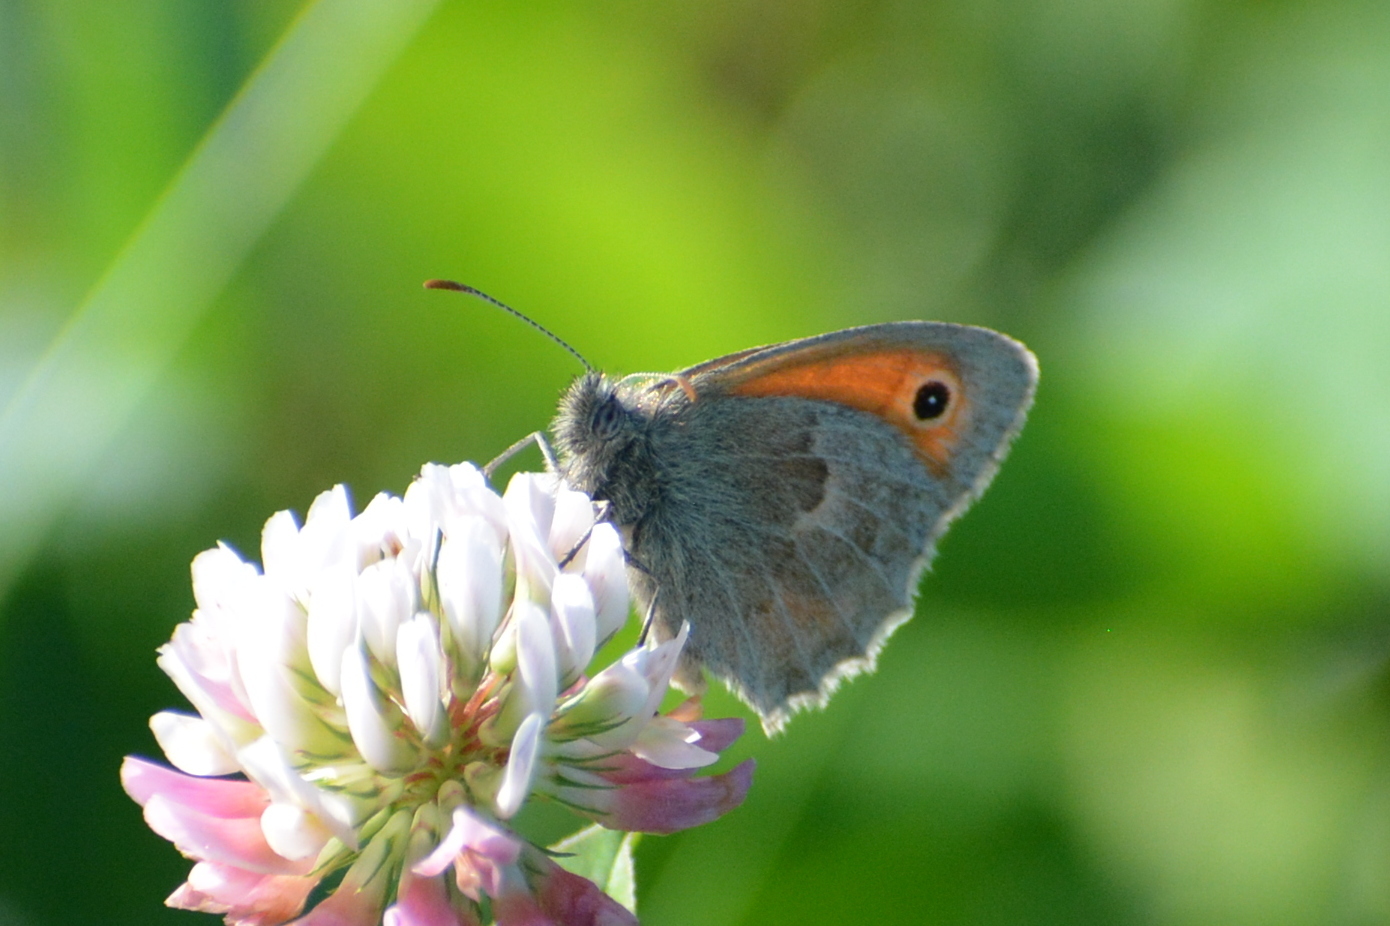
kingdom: Animalia
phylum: Arthropoda
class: Insecta
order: Lepidoptera
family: Nymphalidae
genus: Coenonympha
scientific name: Coenonympha pamphilus
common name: Small heath
